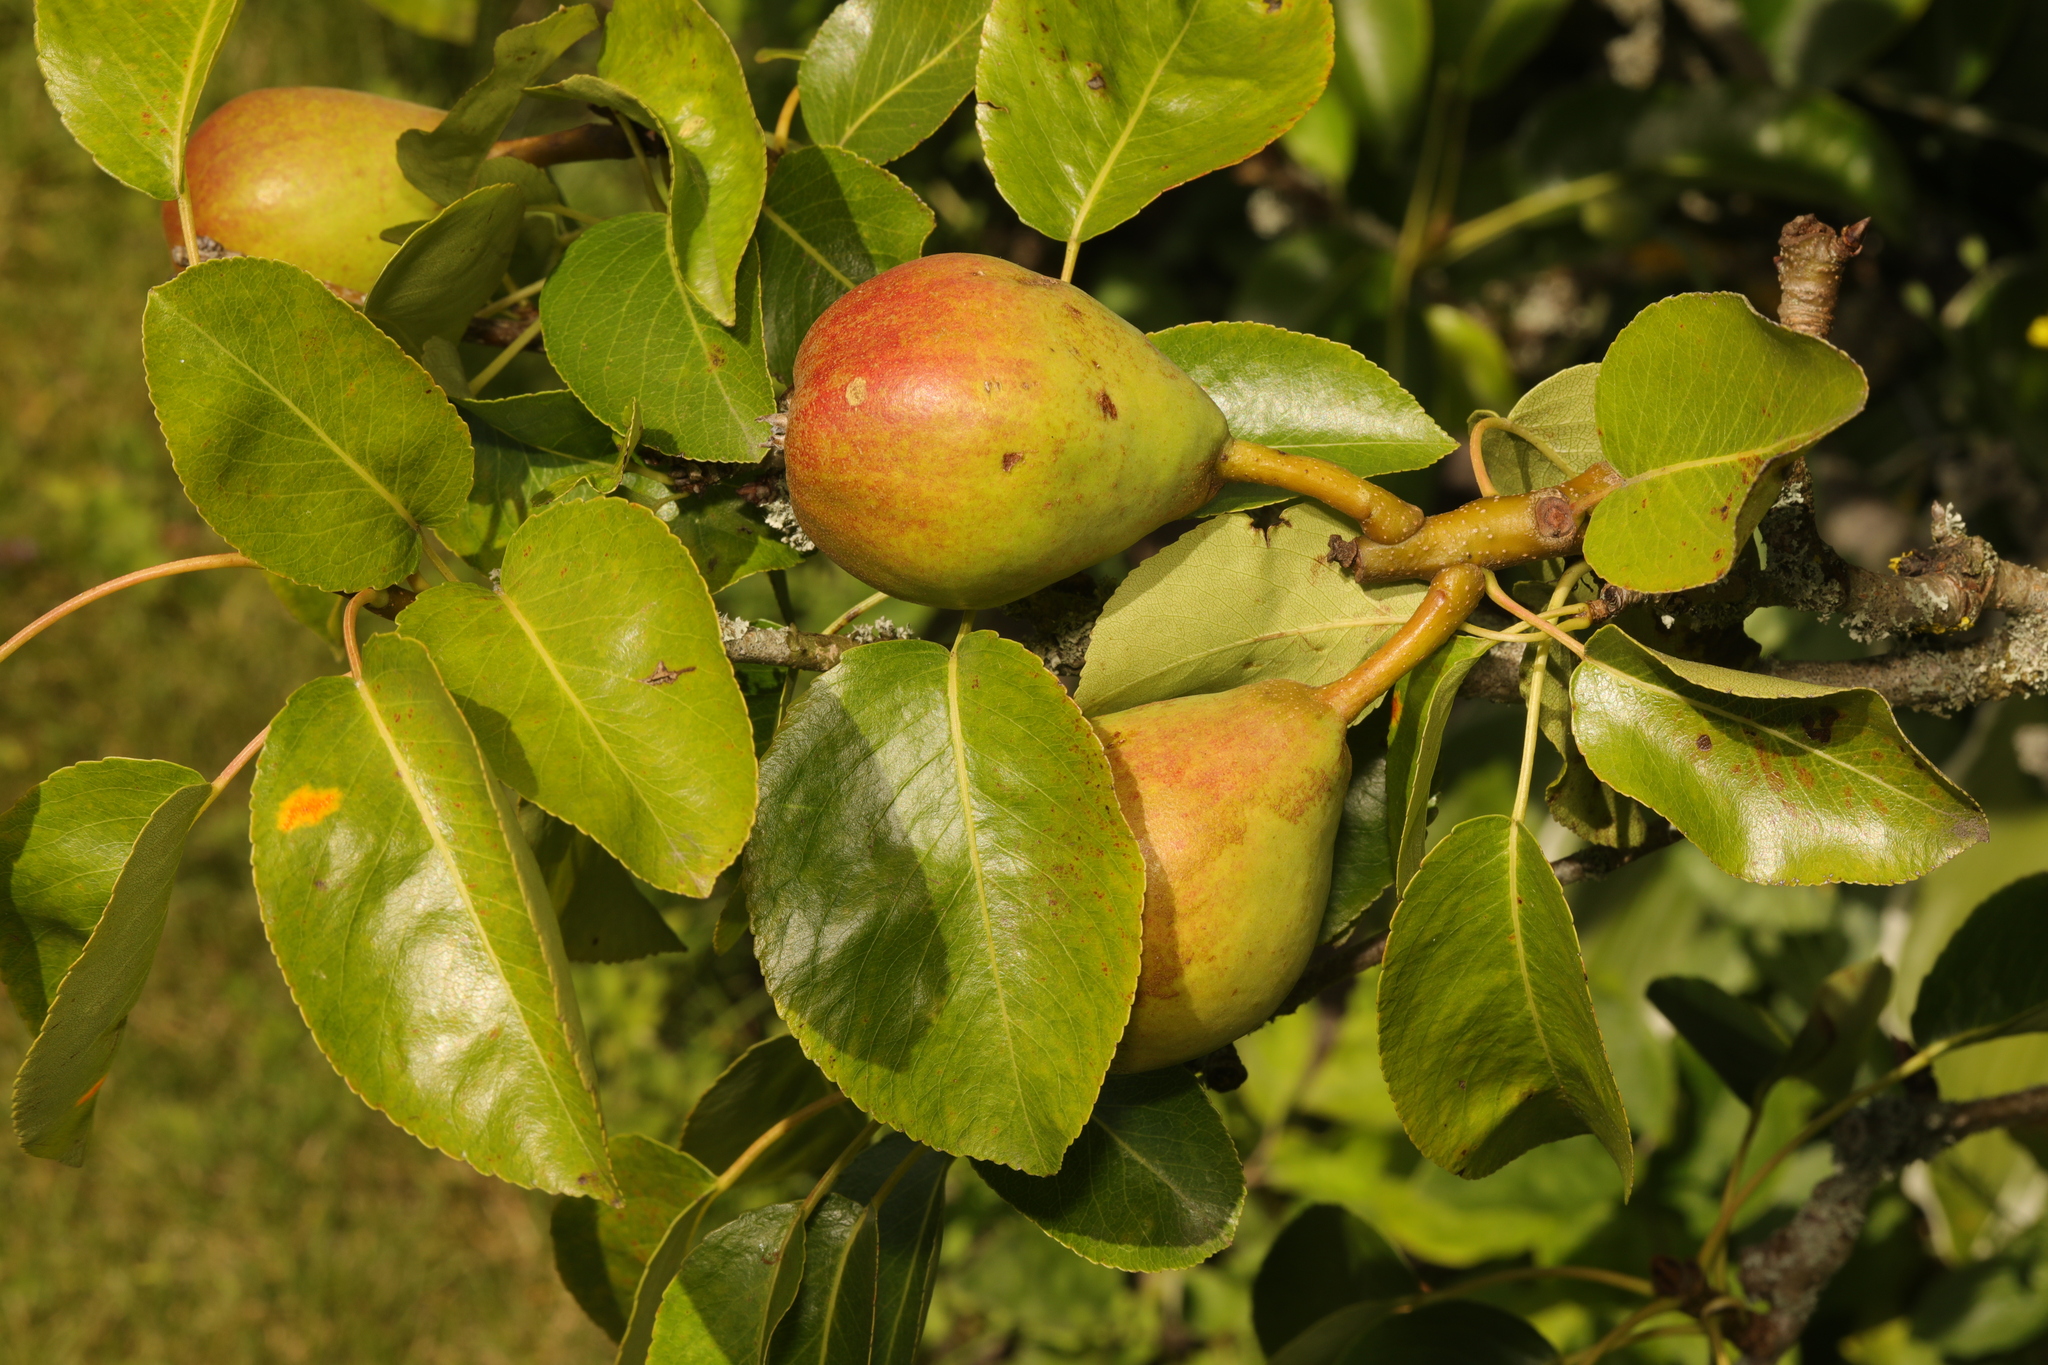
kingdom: Plantae
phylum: Tracheophyta
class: Magnoliopsida
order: Rosales
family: Rosaceae
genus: Pyrus
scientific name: Pyrus communis
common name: Pear
